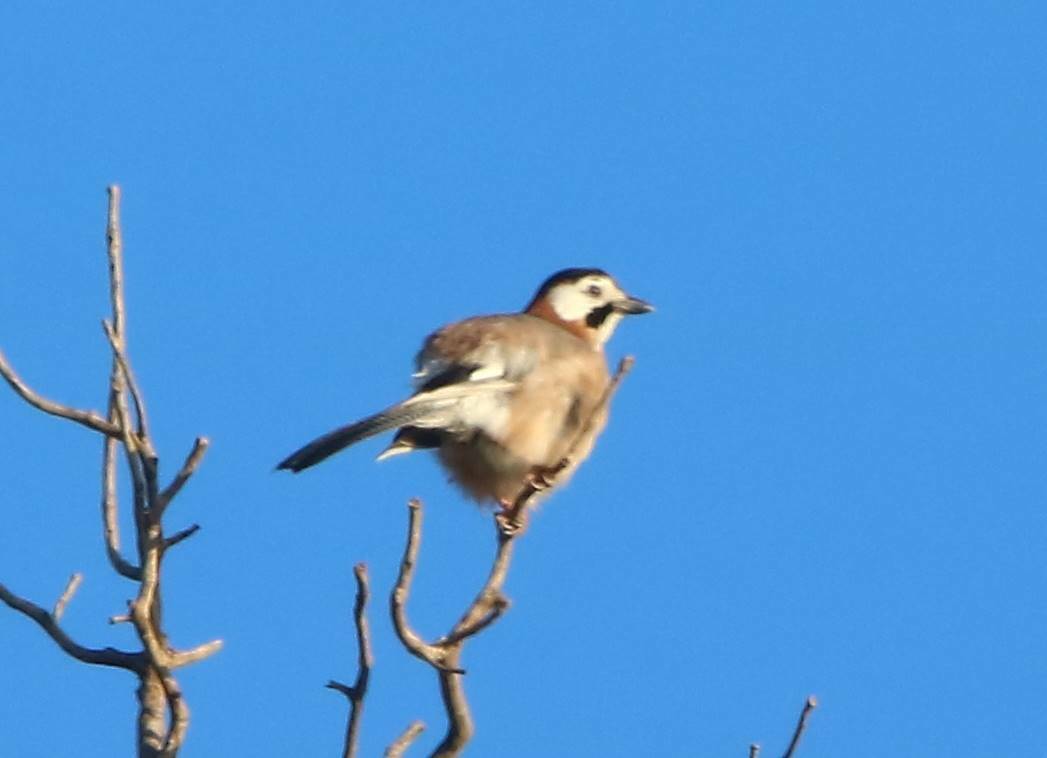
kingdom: Animalia
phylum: Chordata
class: Aves
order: Passeriformes
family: Corvidae
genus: Garrulus
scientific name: Garrulus glandarius
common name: Eurasian jay
